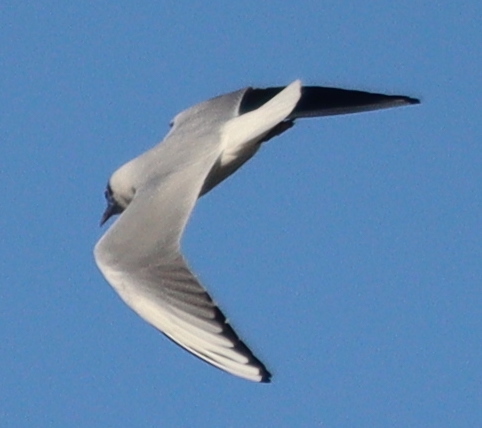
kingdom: Animalia
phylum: Chordata
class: Aves
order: Charadriiformes
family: Laridae
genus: Chroicocephalus
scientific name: Chroicocephalus ridibundus
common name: Black-headed gull
